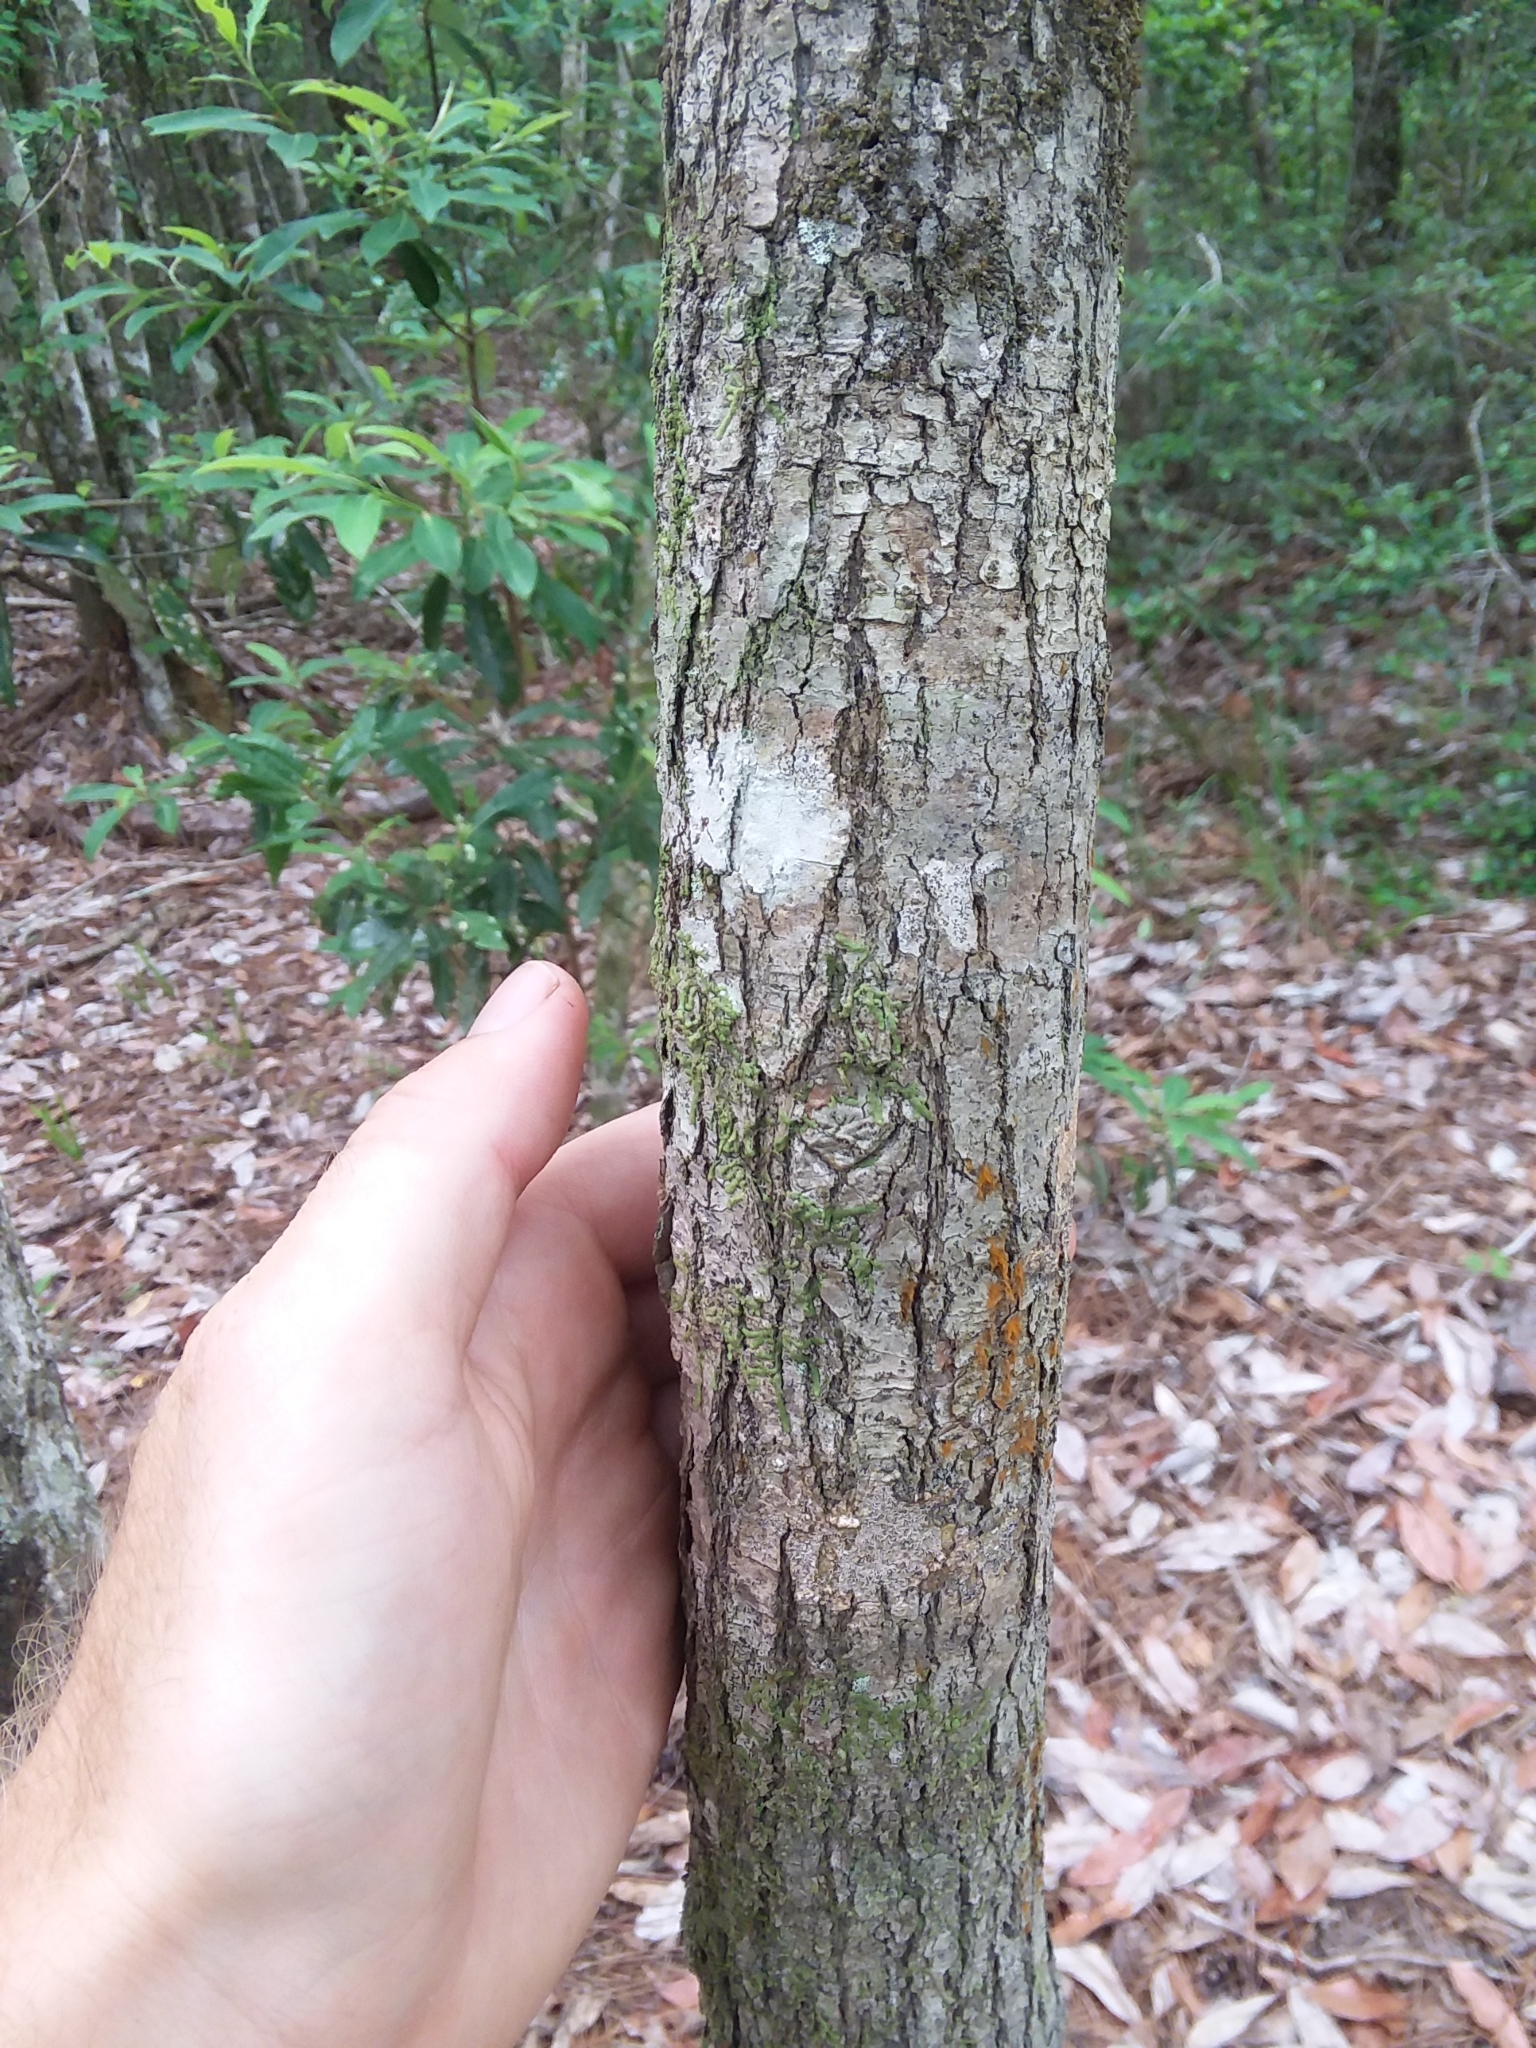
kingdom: Plantae
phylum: Tracheophyta
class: Magnoliopsida
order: Cornales
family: Nyssaceae
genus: Nyssa
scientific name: Nyssa biflora
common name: Swamp blackgum
